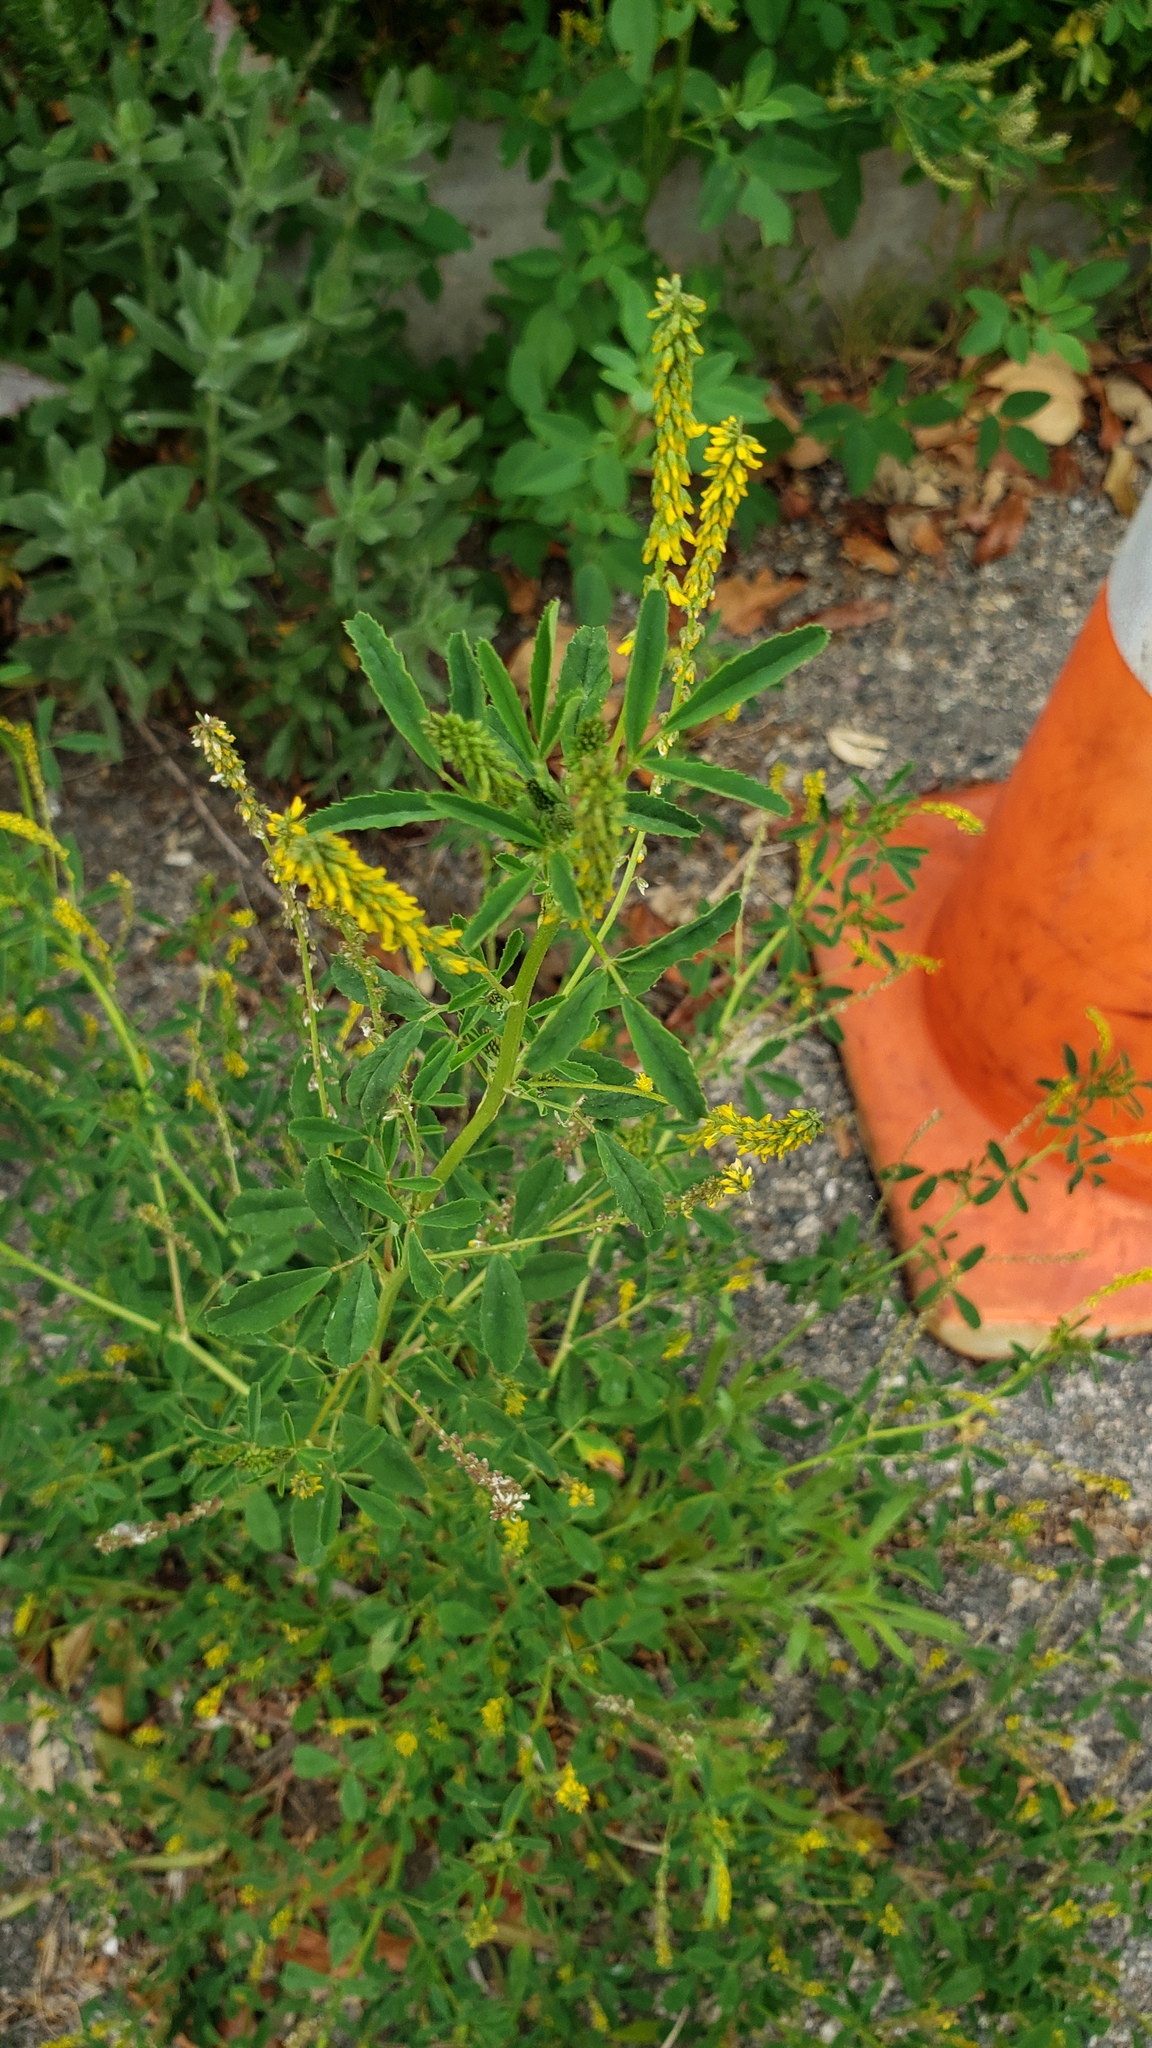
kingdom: Plantae
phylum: Tracheophyta
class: Magnoliopsida
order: Fabales
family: Fabaceae
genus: Melilotus
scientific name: Melilotus indicus
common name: Small melilot
